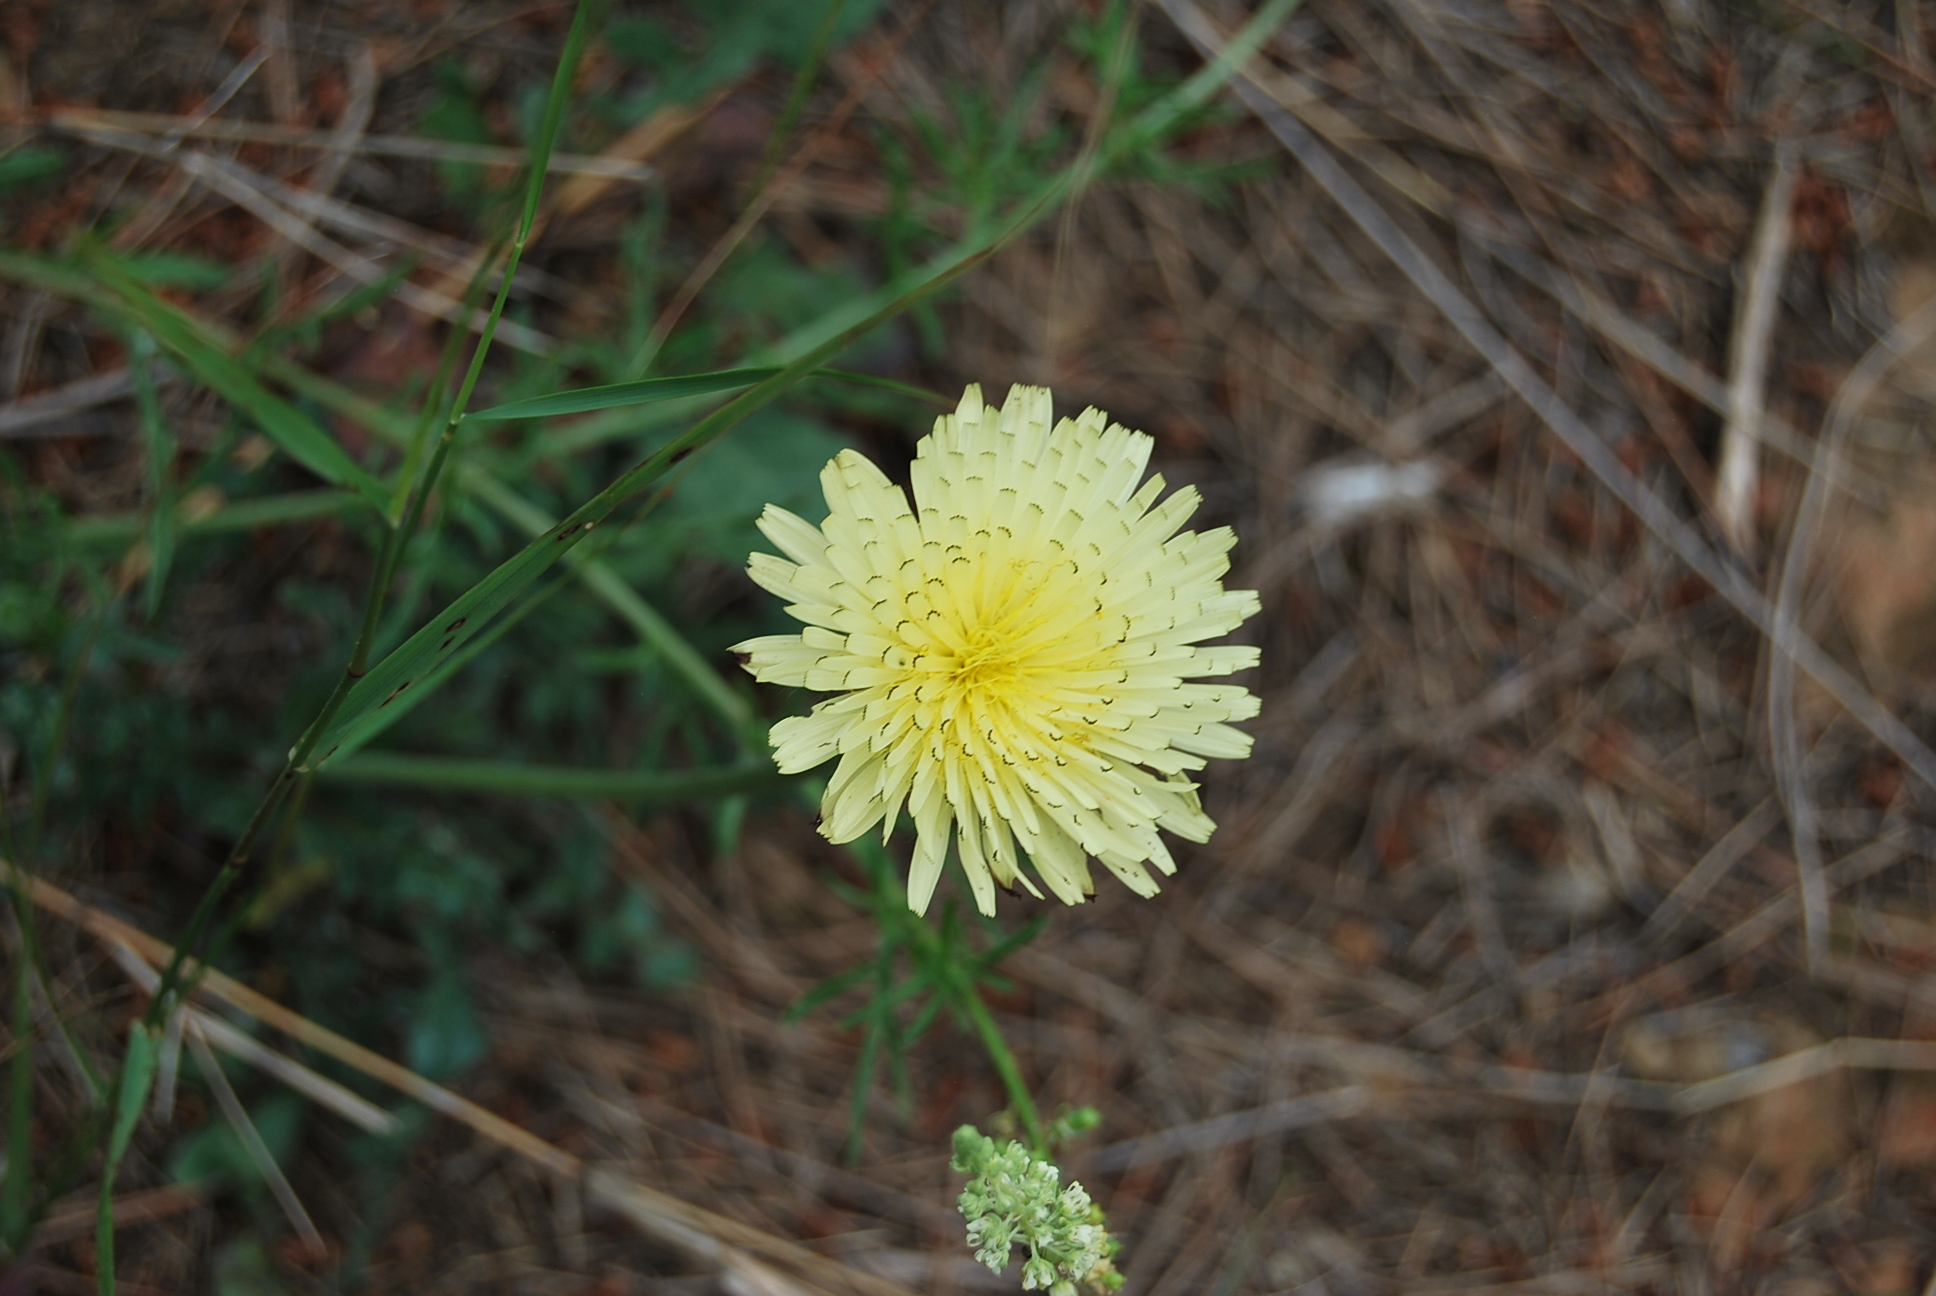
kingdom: Plantae
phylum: Tracheophyta
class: Magnoliopsida
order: Asterales
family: Asteraceae
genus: Urospermum
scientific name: Urospermum dalechampii
